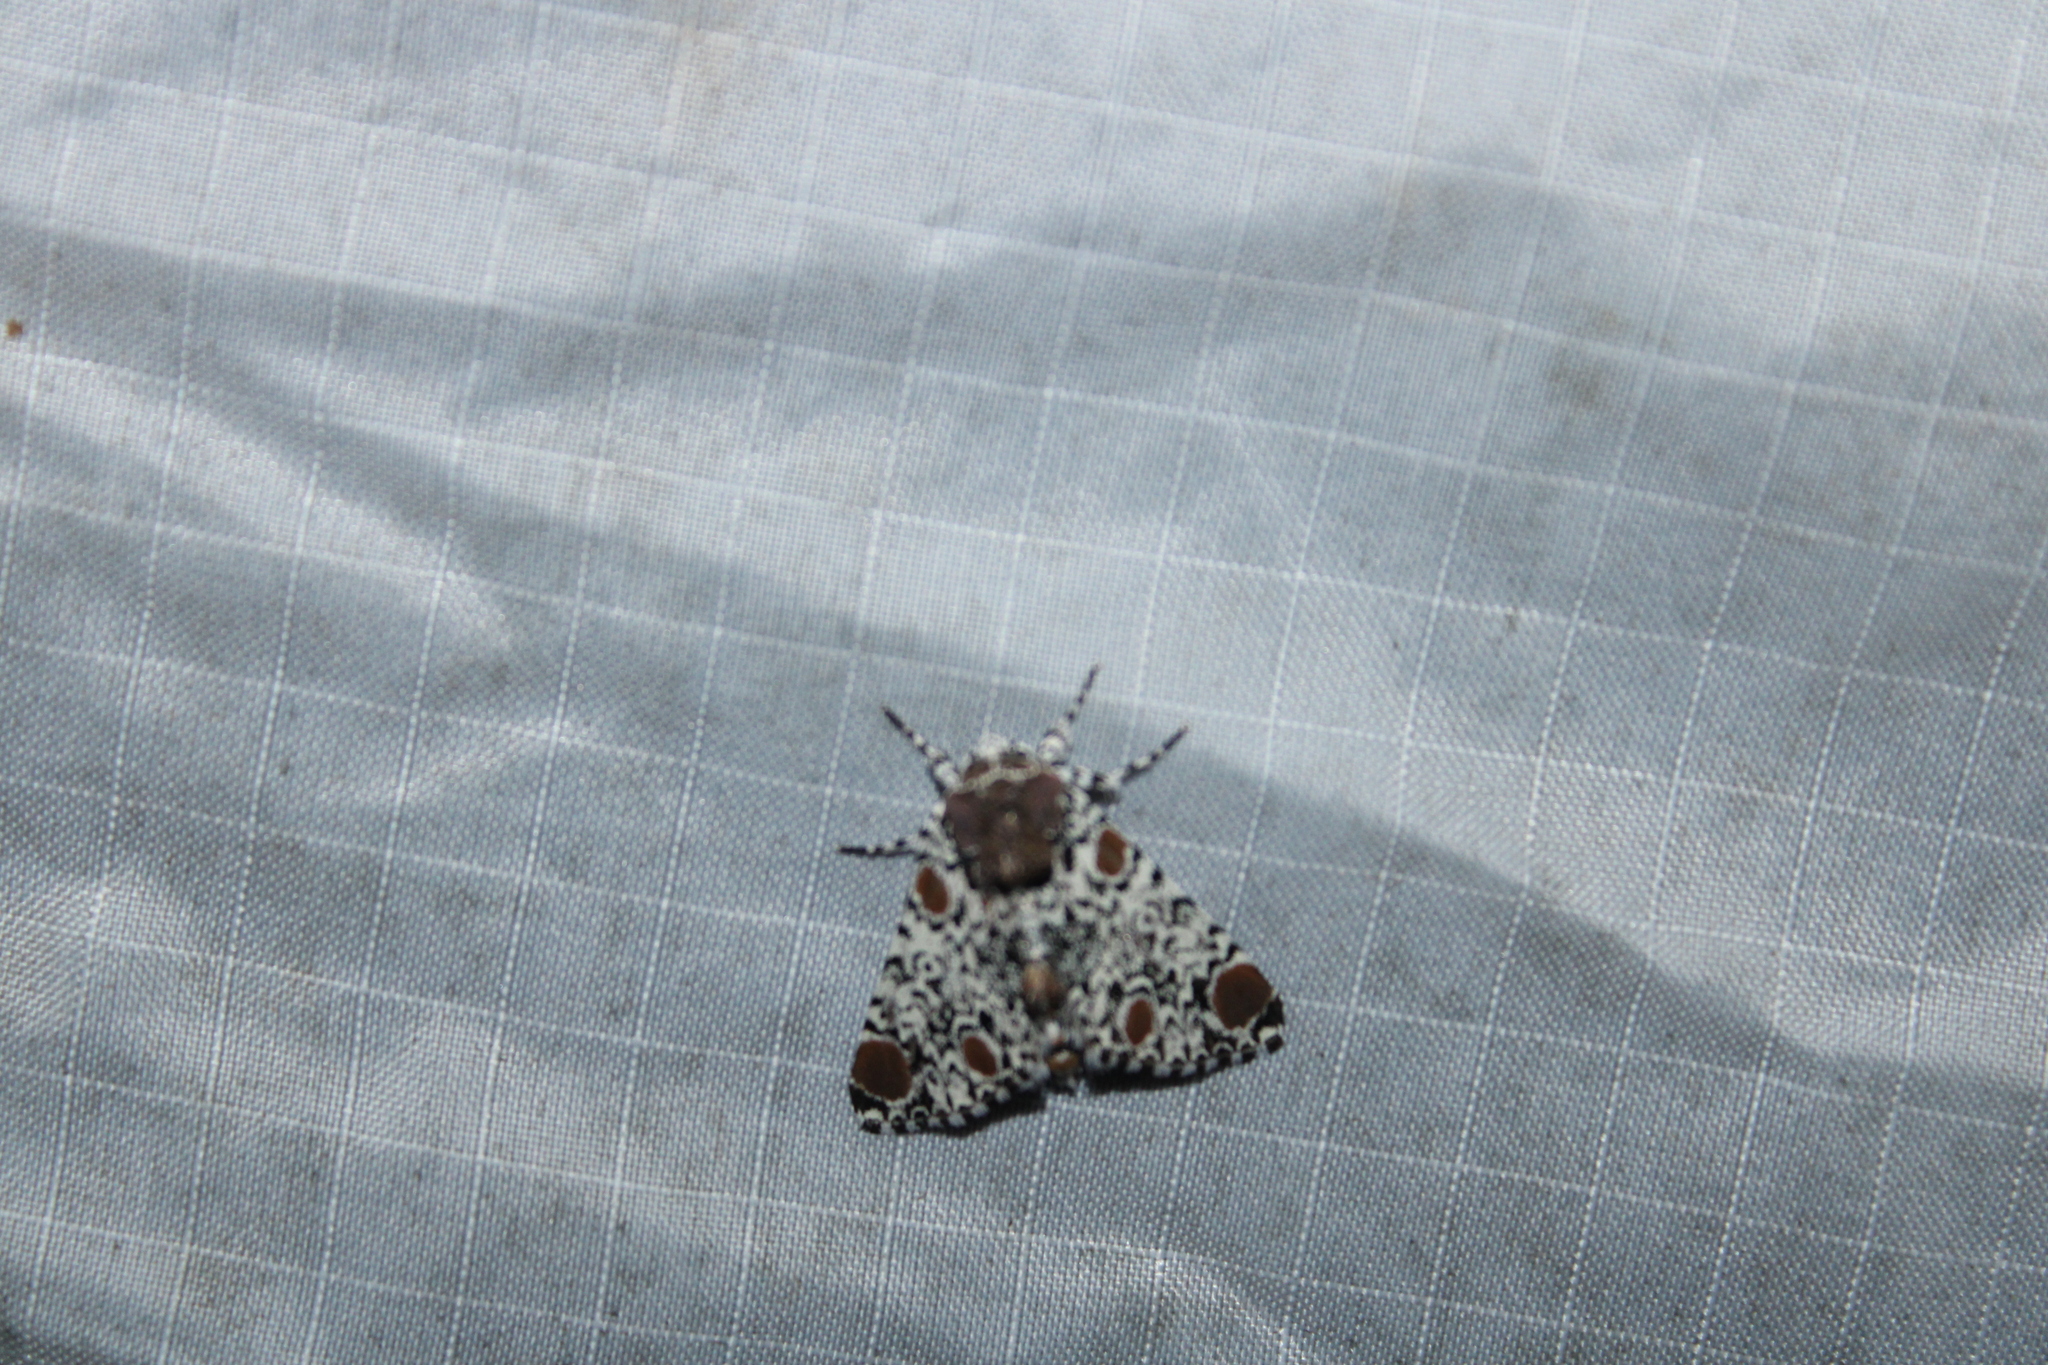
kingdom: Animalia
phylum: Arthropoda
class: Insecta
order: Lepidoptera
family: Noctuidae
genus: Harrisimemna
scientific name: Harrisimemna trisignata
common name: Harris threespot
